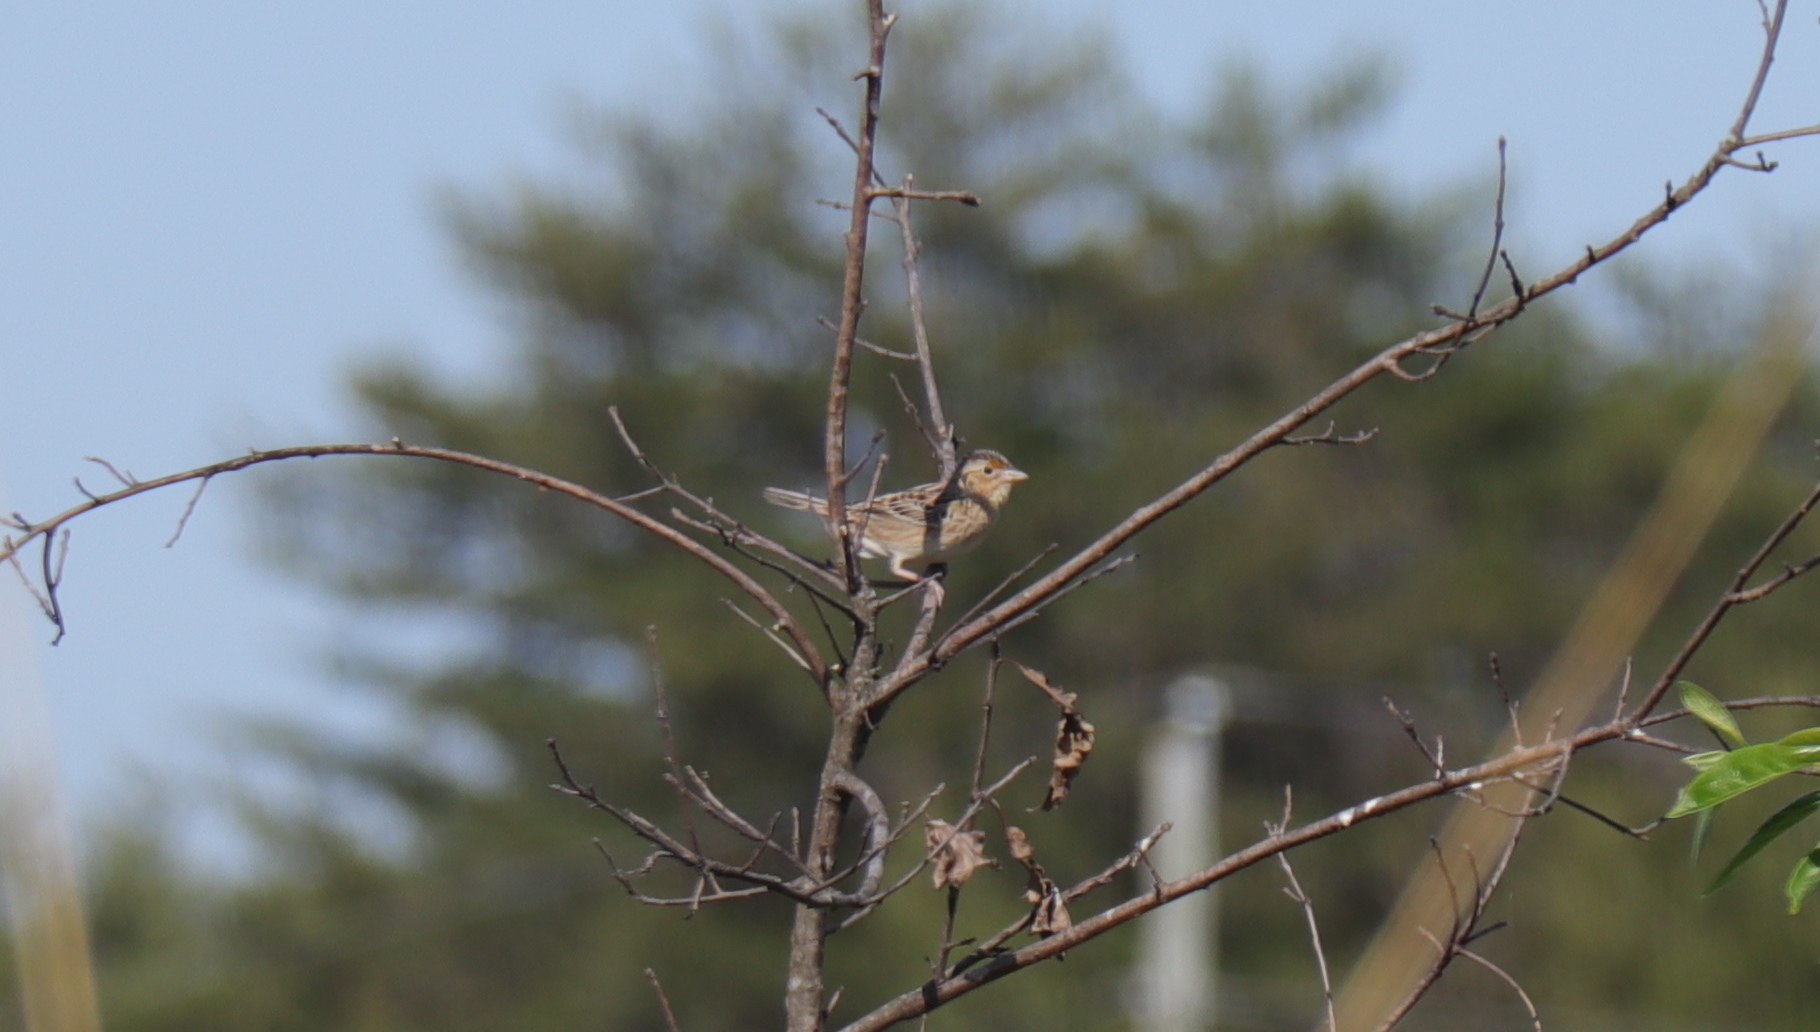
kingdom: Animalia
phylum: Chordata
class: Aves
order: Passeriformes
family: Passerellidae
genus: Ammodramus
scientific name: Ammodramus savannarum
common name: Grasshopper sparrow
